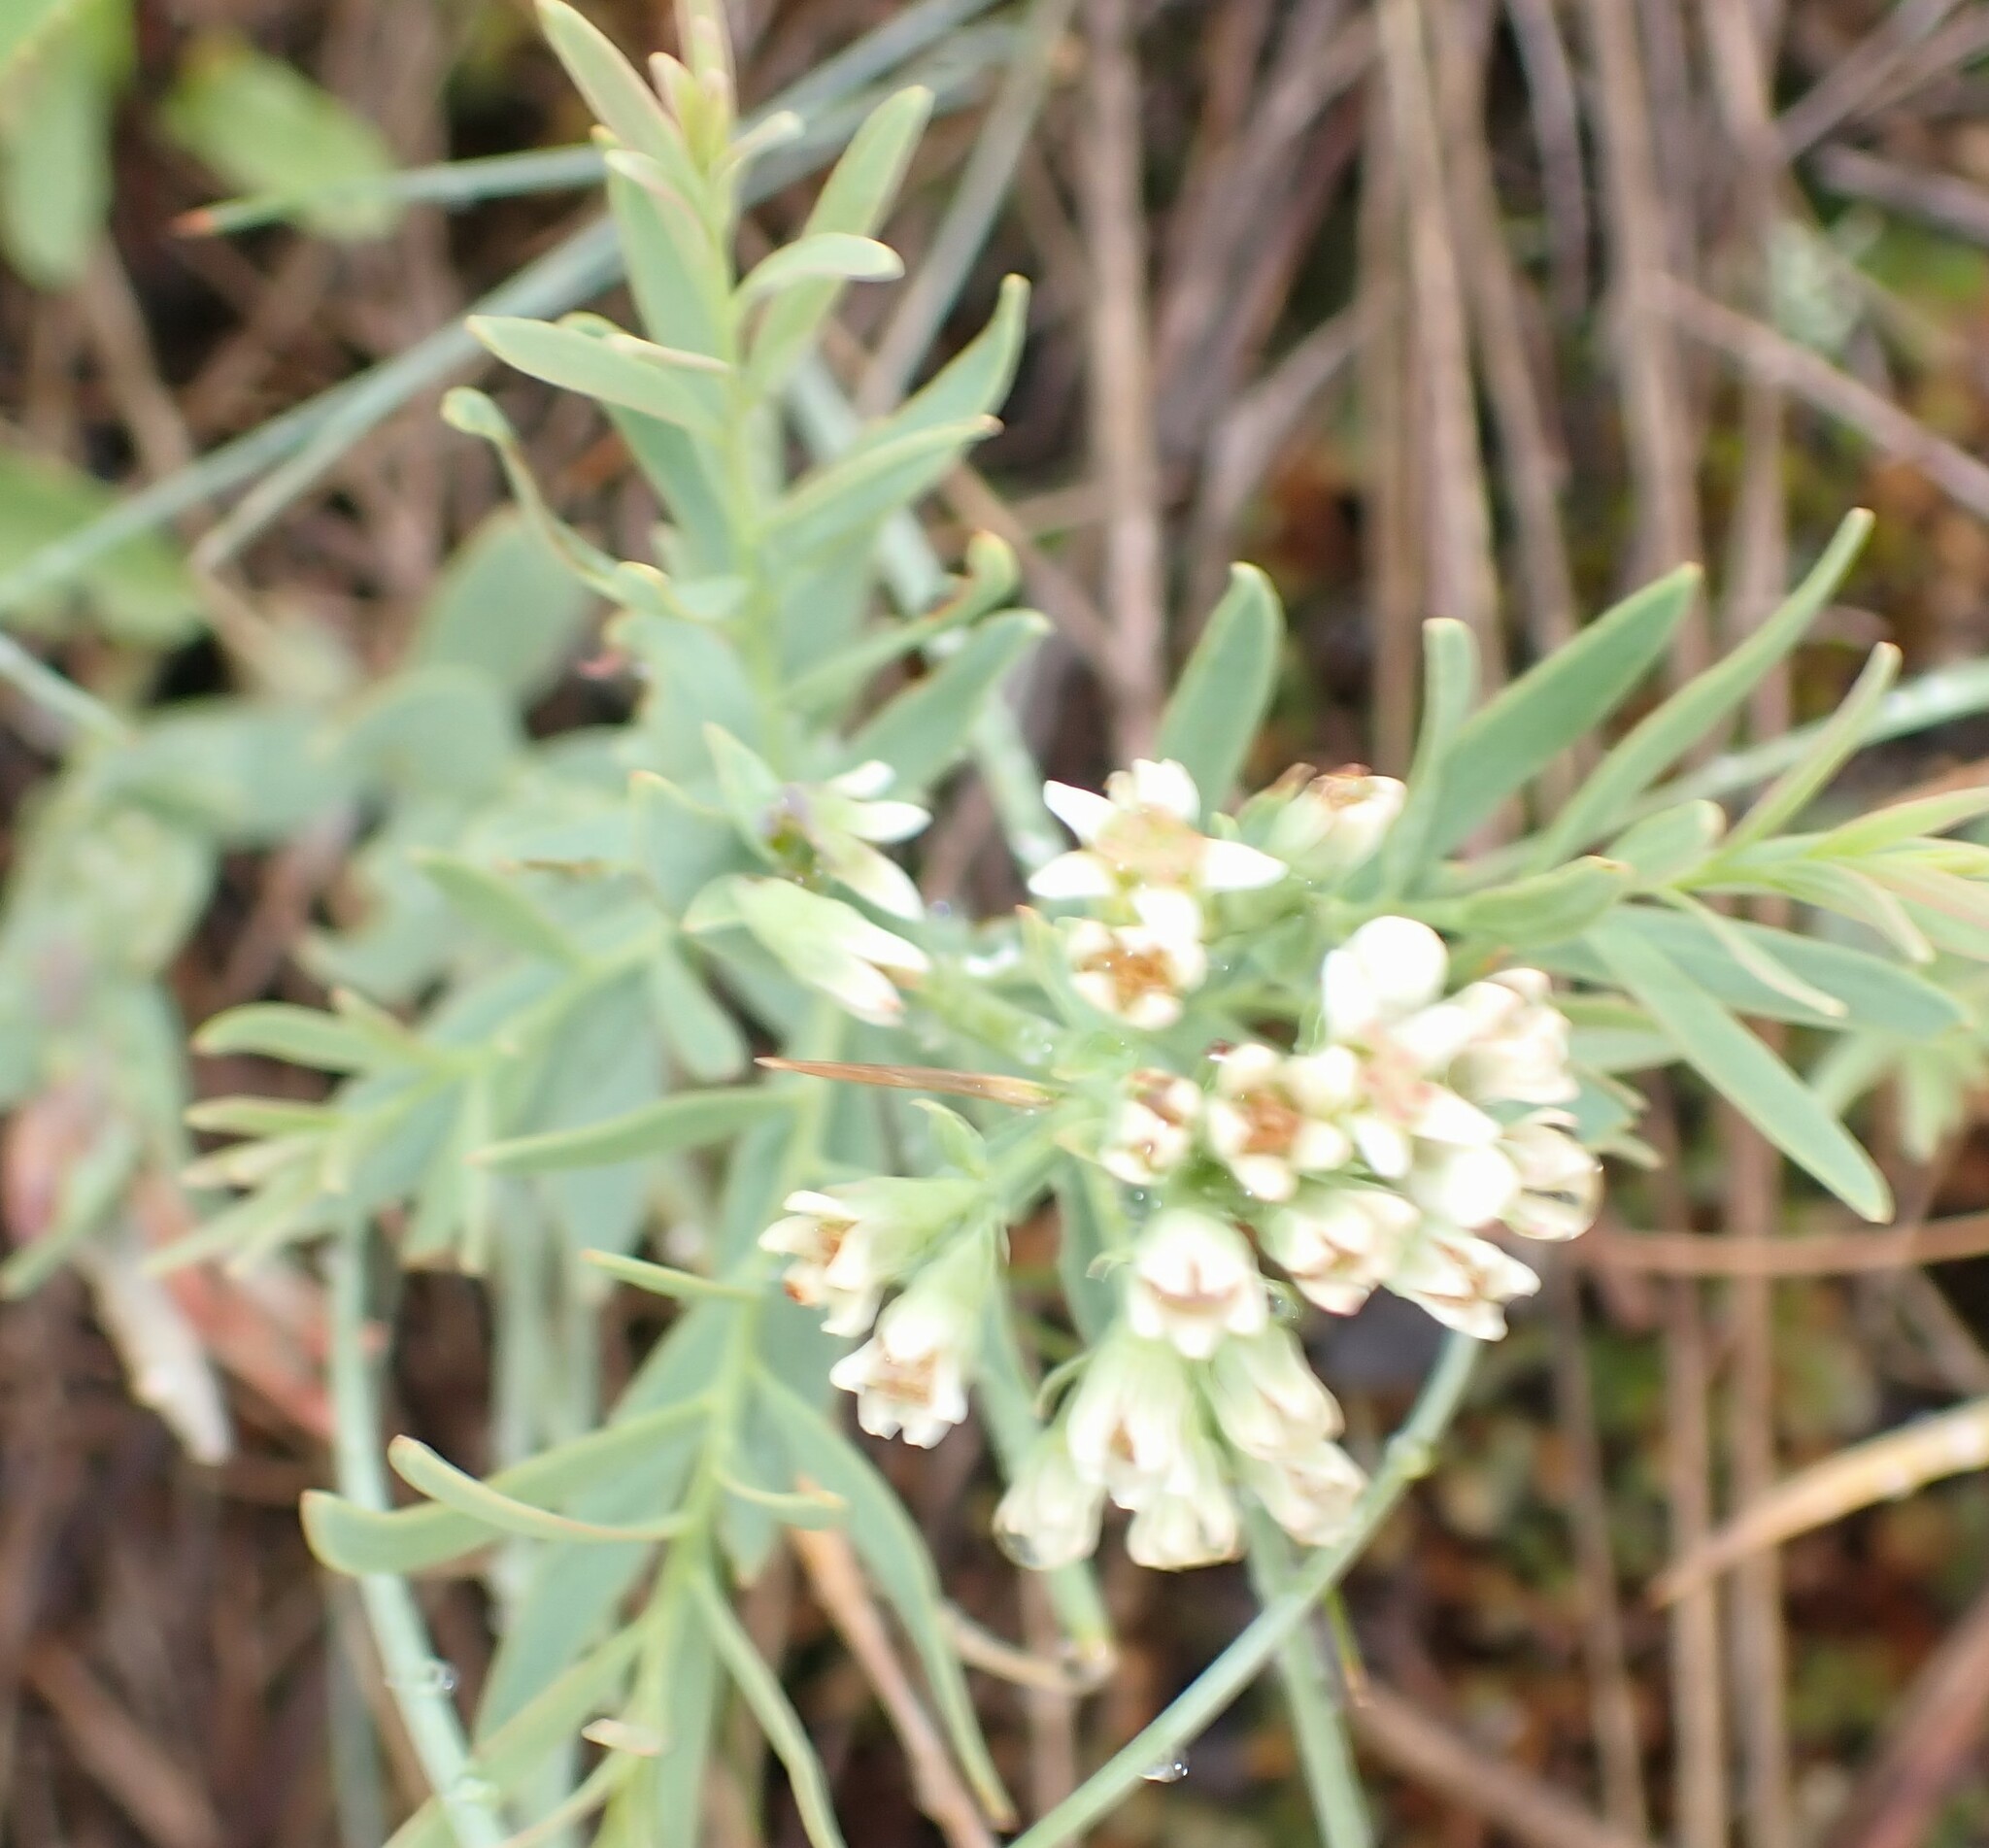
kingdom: Plantae
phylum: Tracheophyta
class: Magnoliopsida
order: Santalales
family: Comandraceae
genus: Comandra
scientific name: Comandra umbellata
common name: Bastard toadflax
